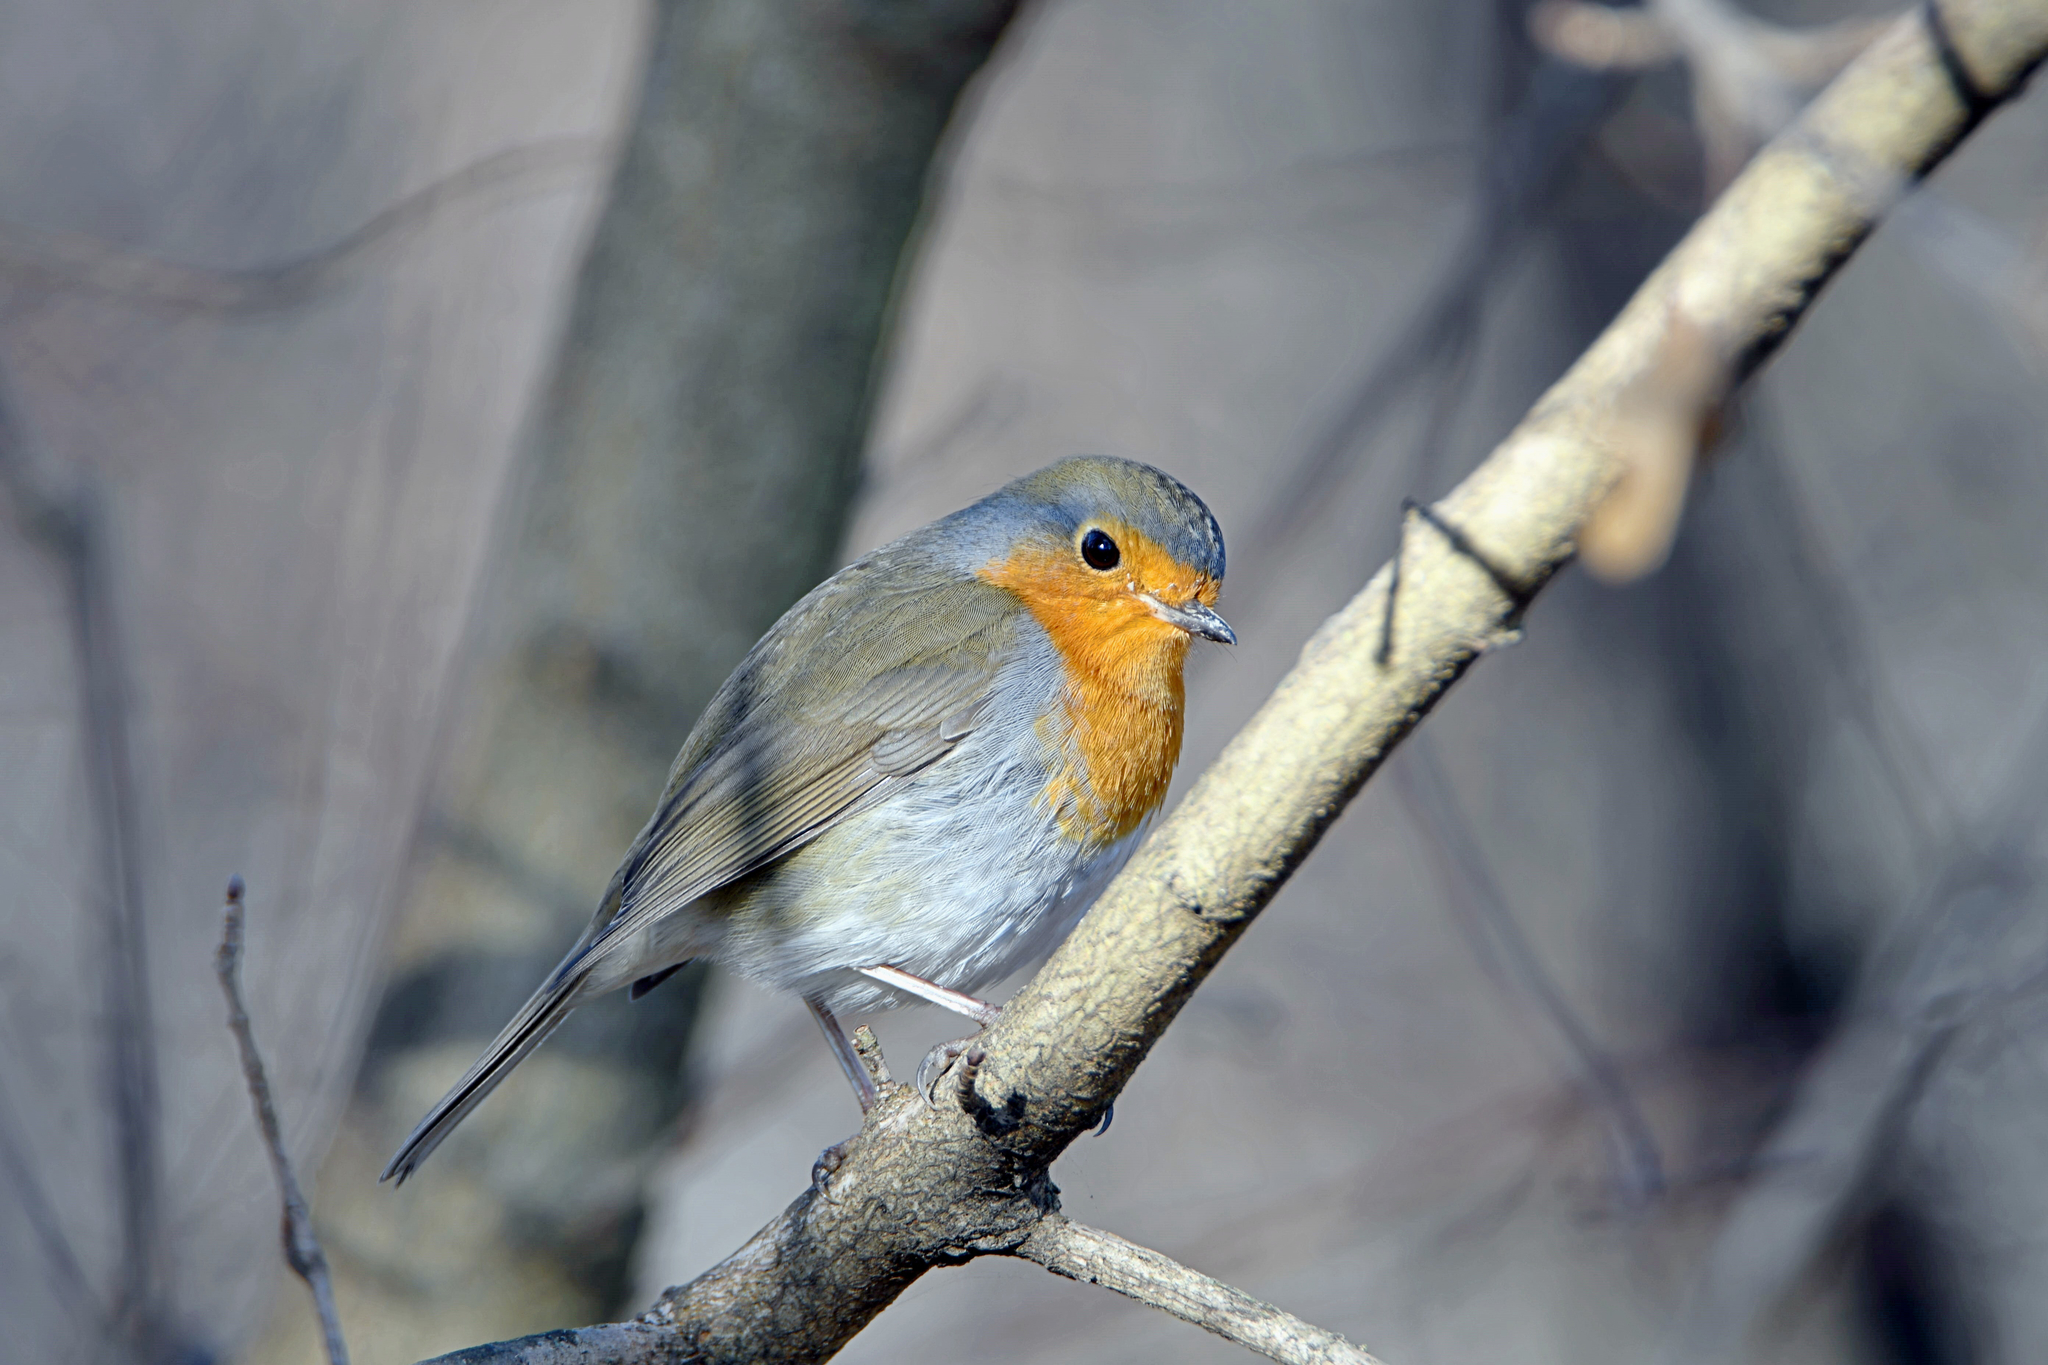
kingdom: Animalia
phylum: Chordata
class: Aves
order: Passeriformes
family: Muscicapidae
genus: Erithacus
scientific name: Erithacus rubecula
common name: European robin
